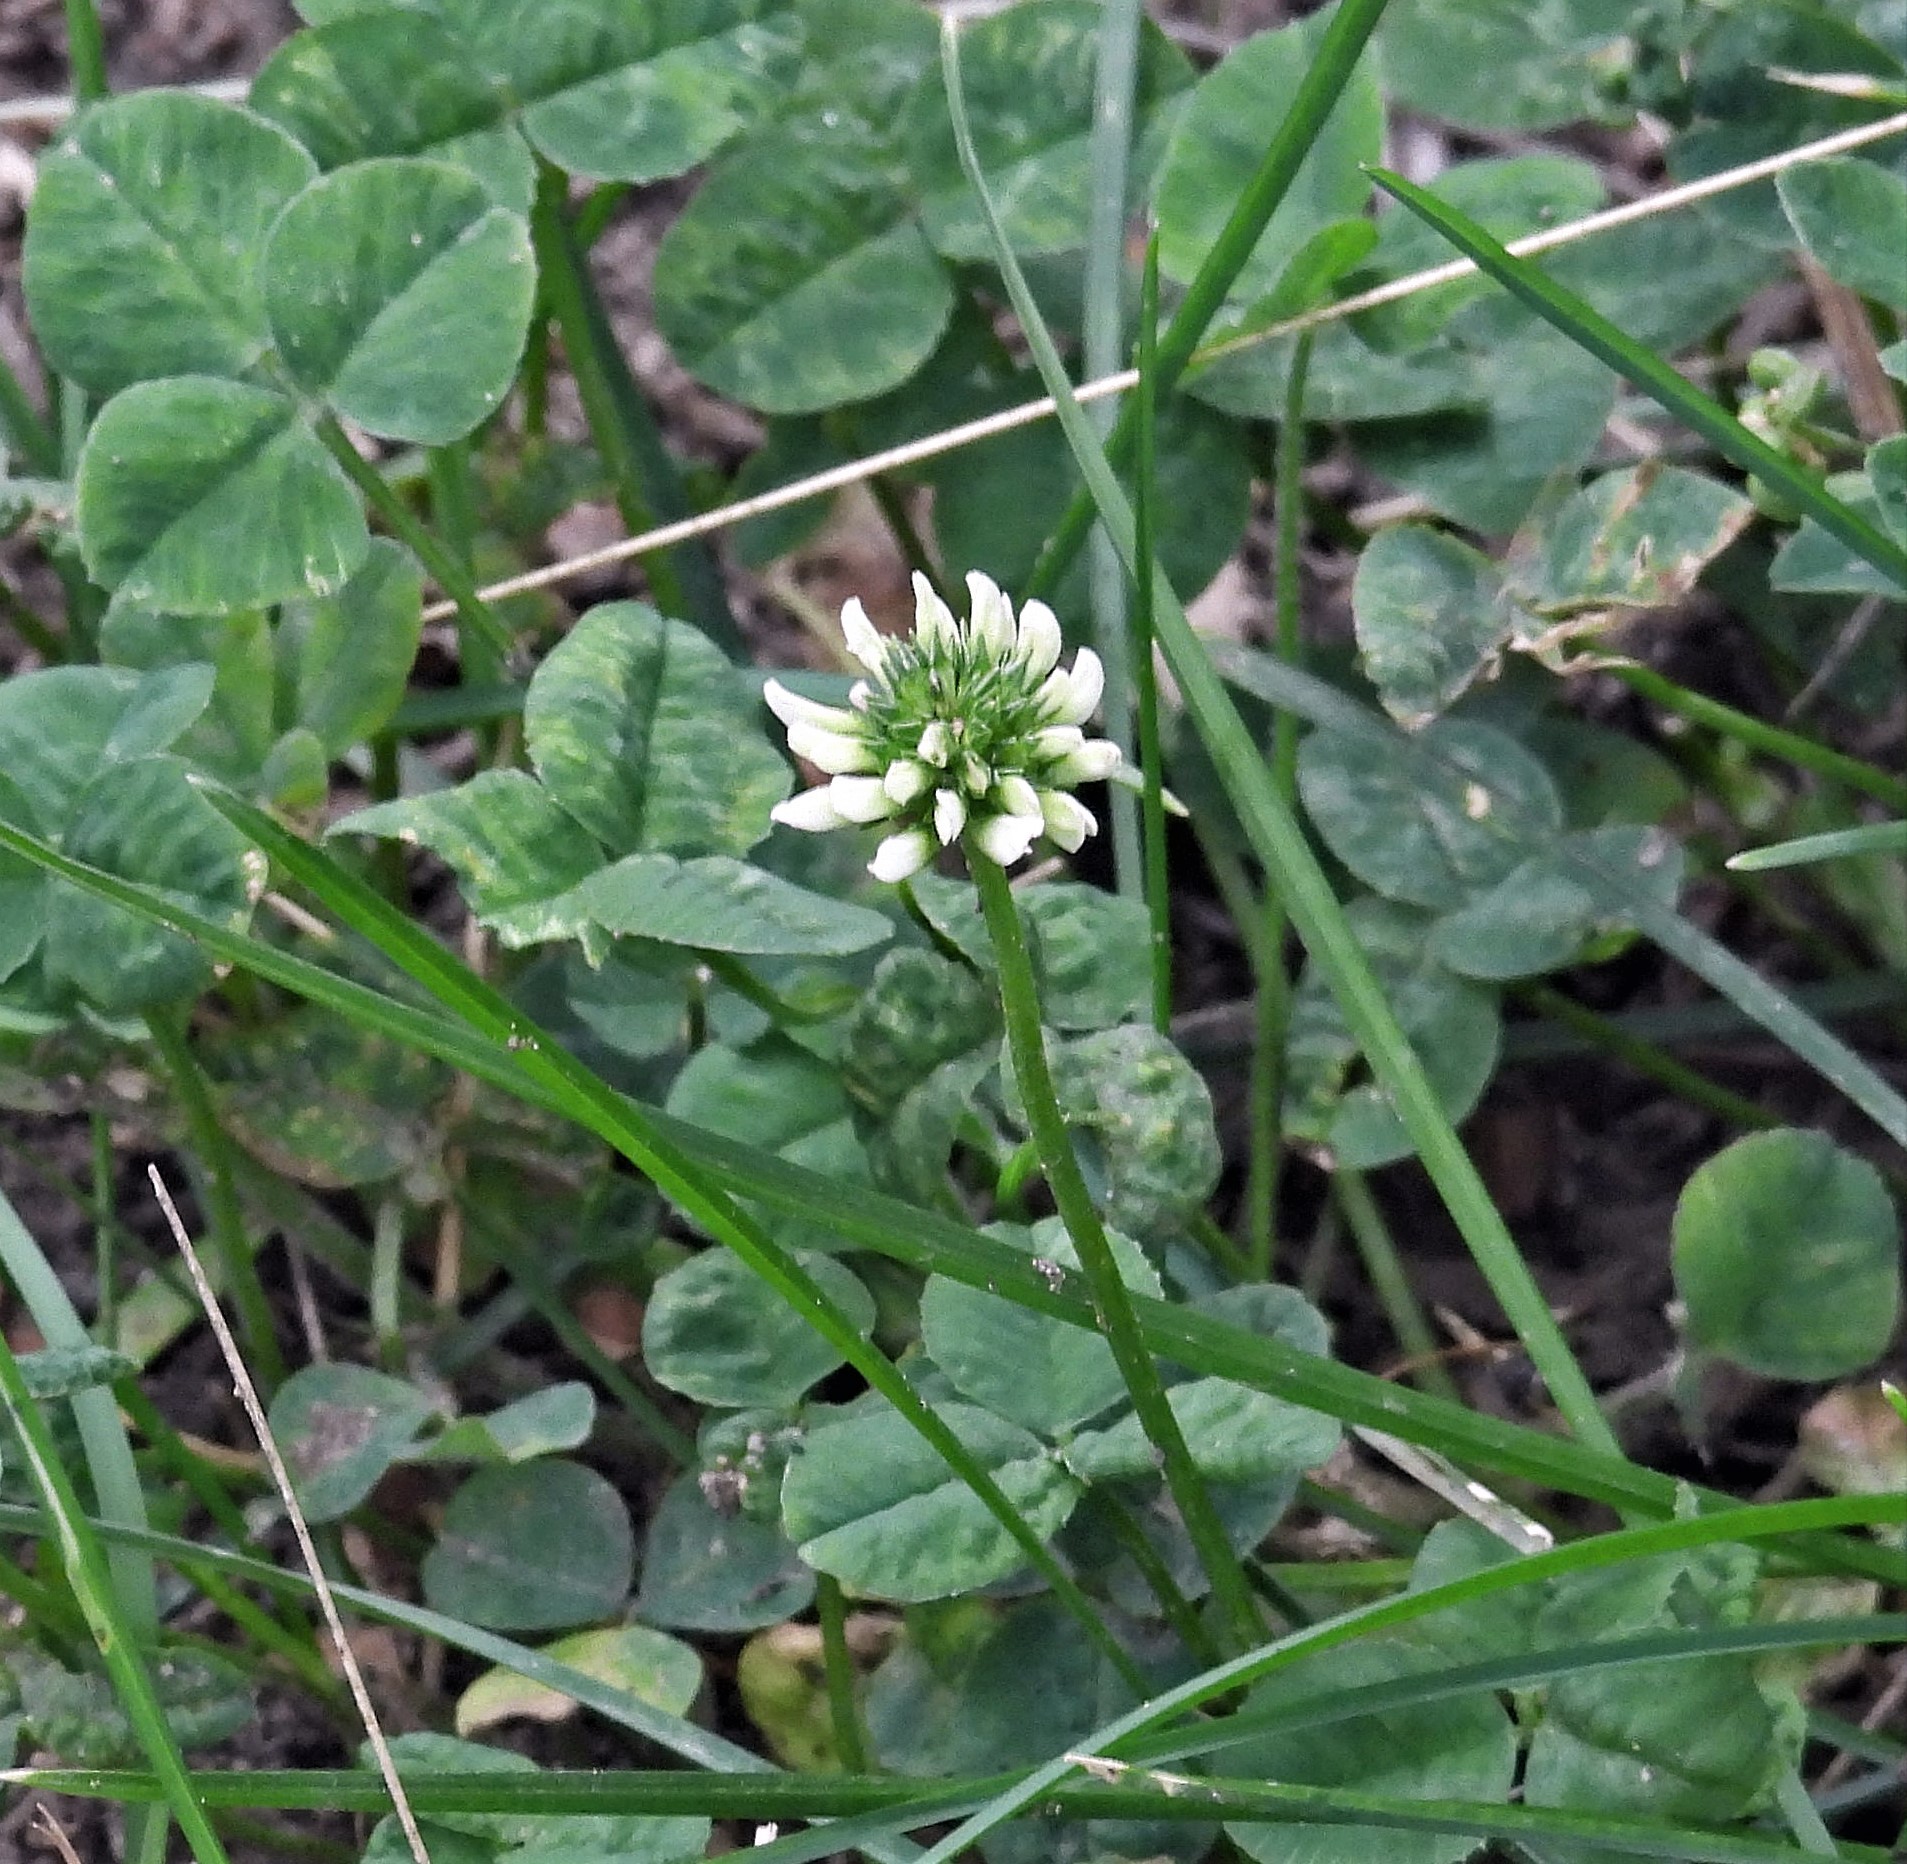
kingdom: Plantae
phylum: Tracheophyta
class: Magnoliopsida
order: Fabales
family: Fabaceae
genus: Trifolium
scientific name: Trifolium repens
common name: White clover
